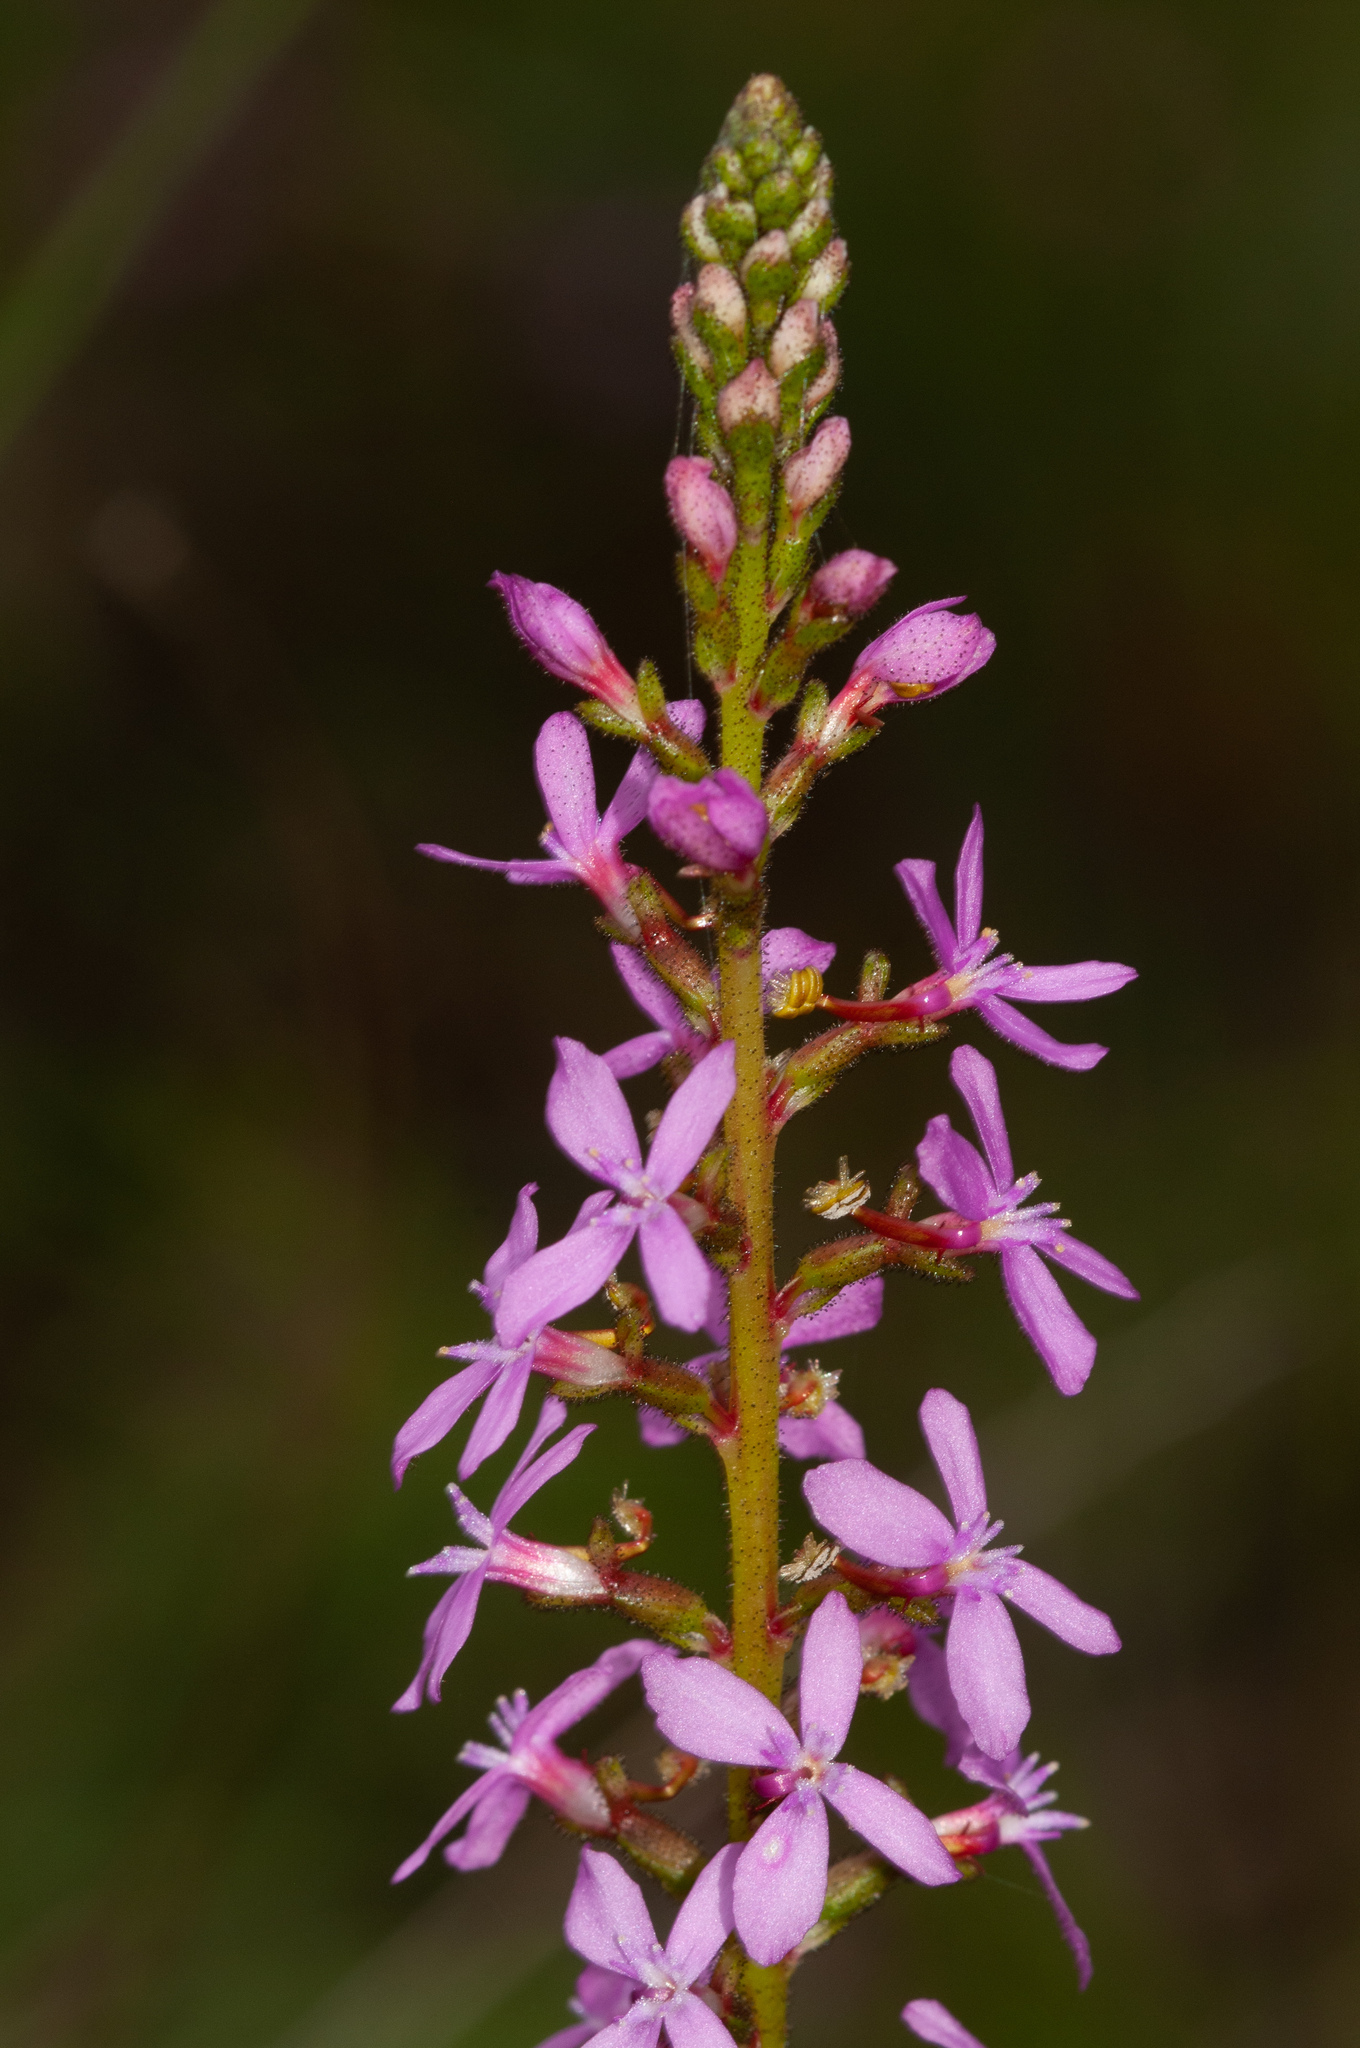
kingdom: Plantae
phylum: Tracheophyta
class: Magnoliopsida
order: Asterales
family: Stylidiaceae
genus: Stylidium
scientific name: Stylidium graminifolium
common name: Grass triggerplant
